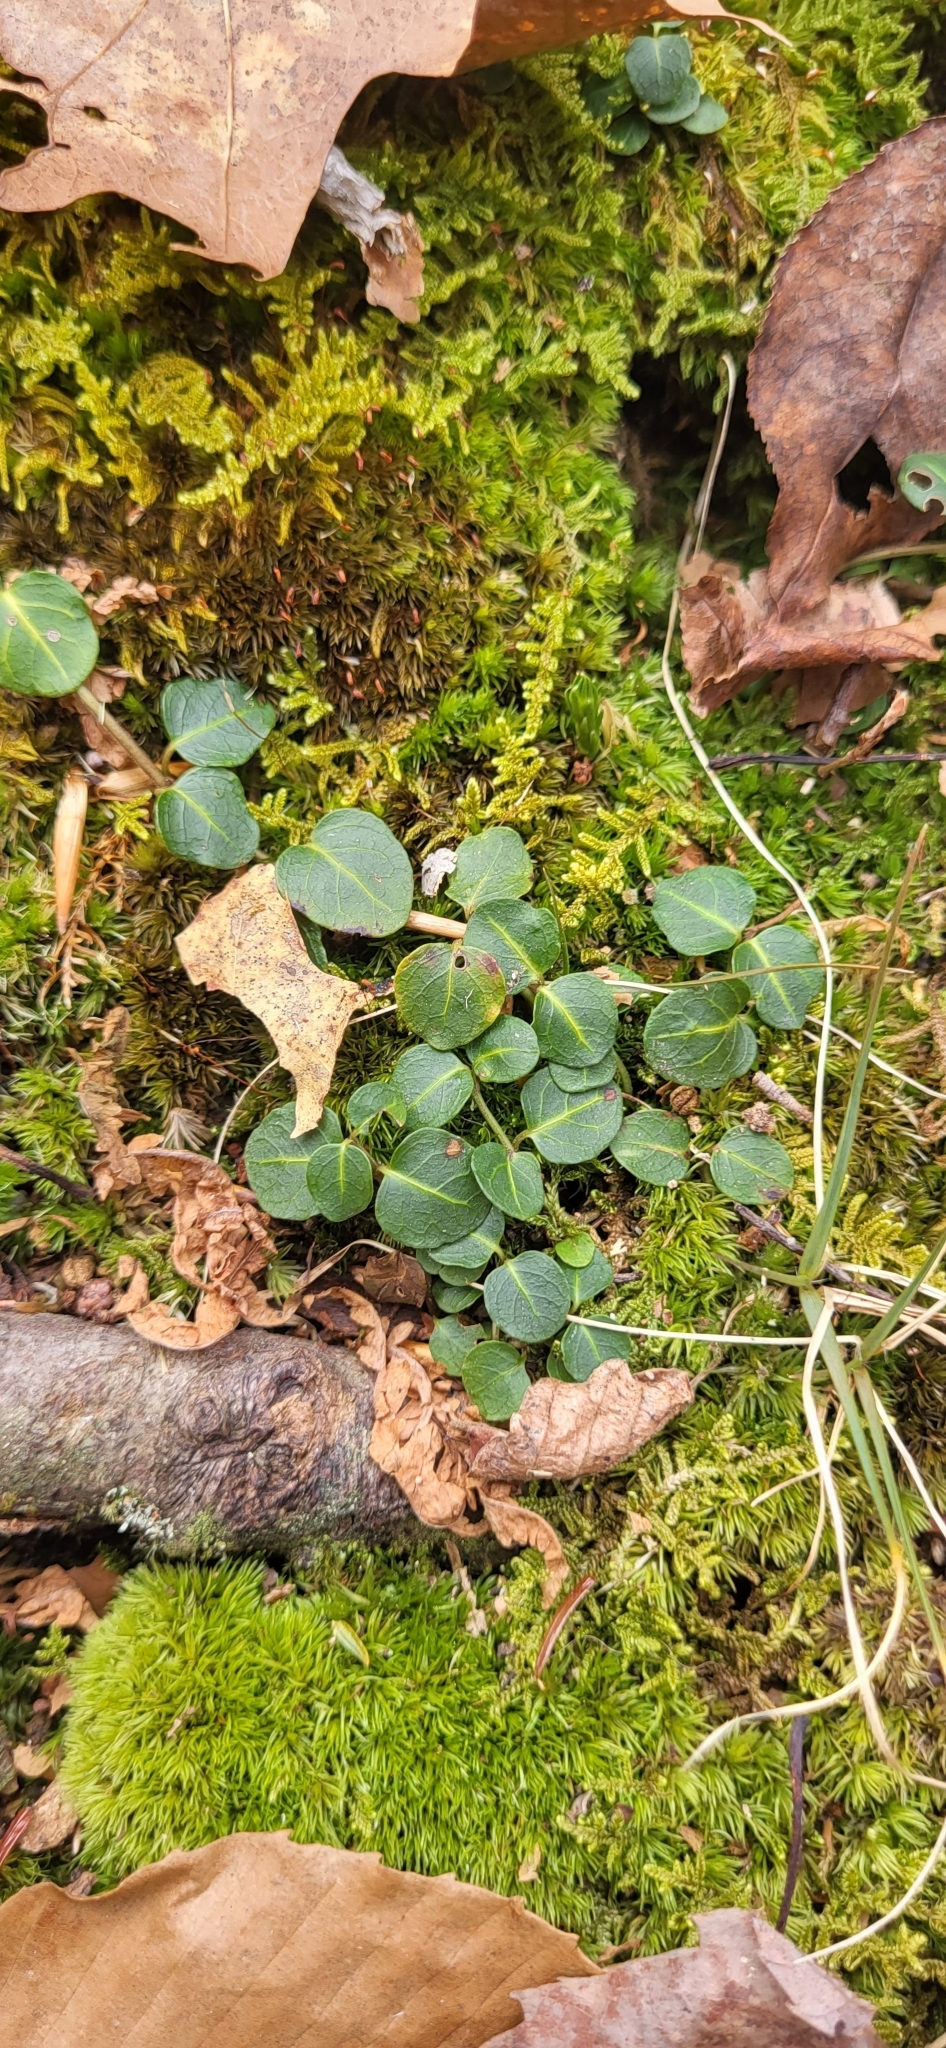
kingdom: Plantae
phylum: Tracheophyta
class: Magnoliopsida
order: Gentianales
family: Rubiaceae
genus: Mitchella
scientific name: Mitchella repens
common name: Partridge-berry
